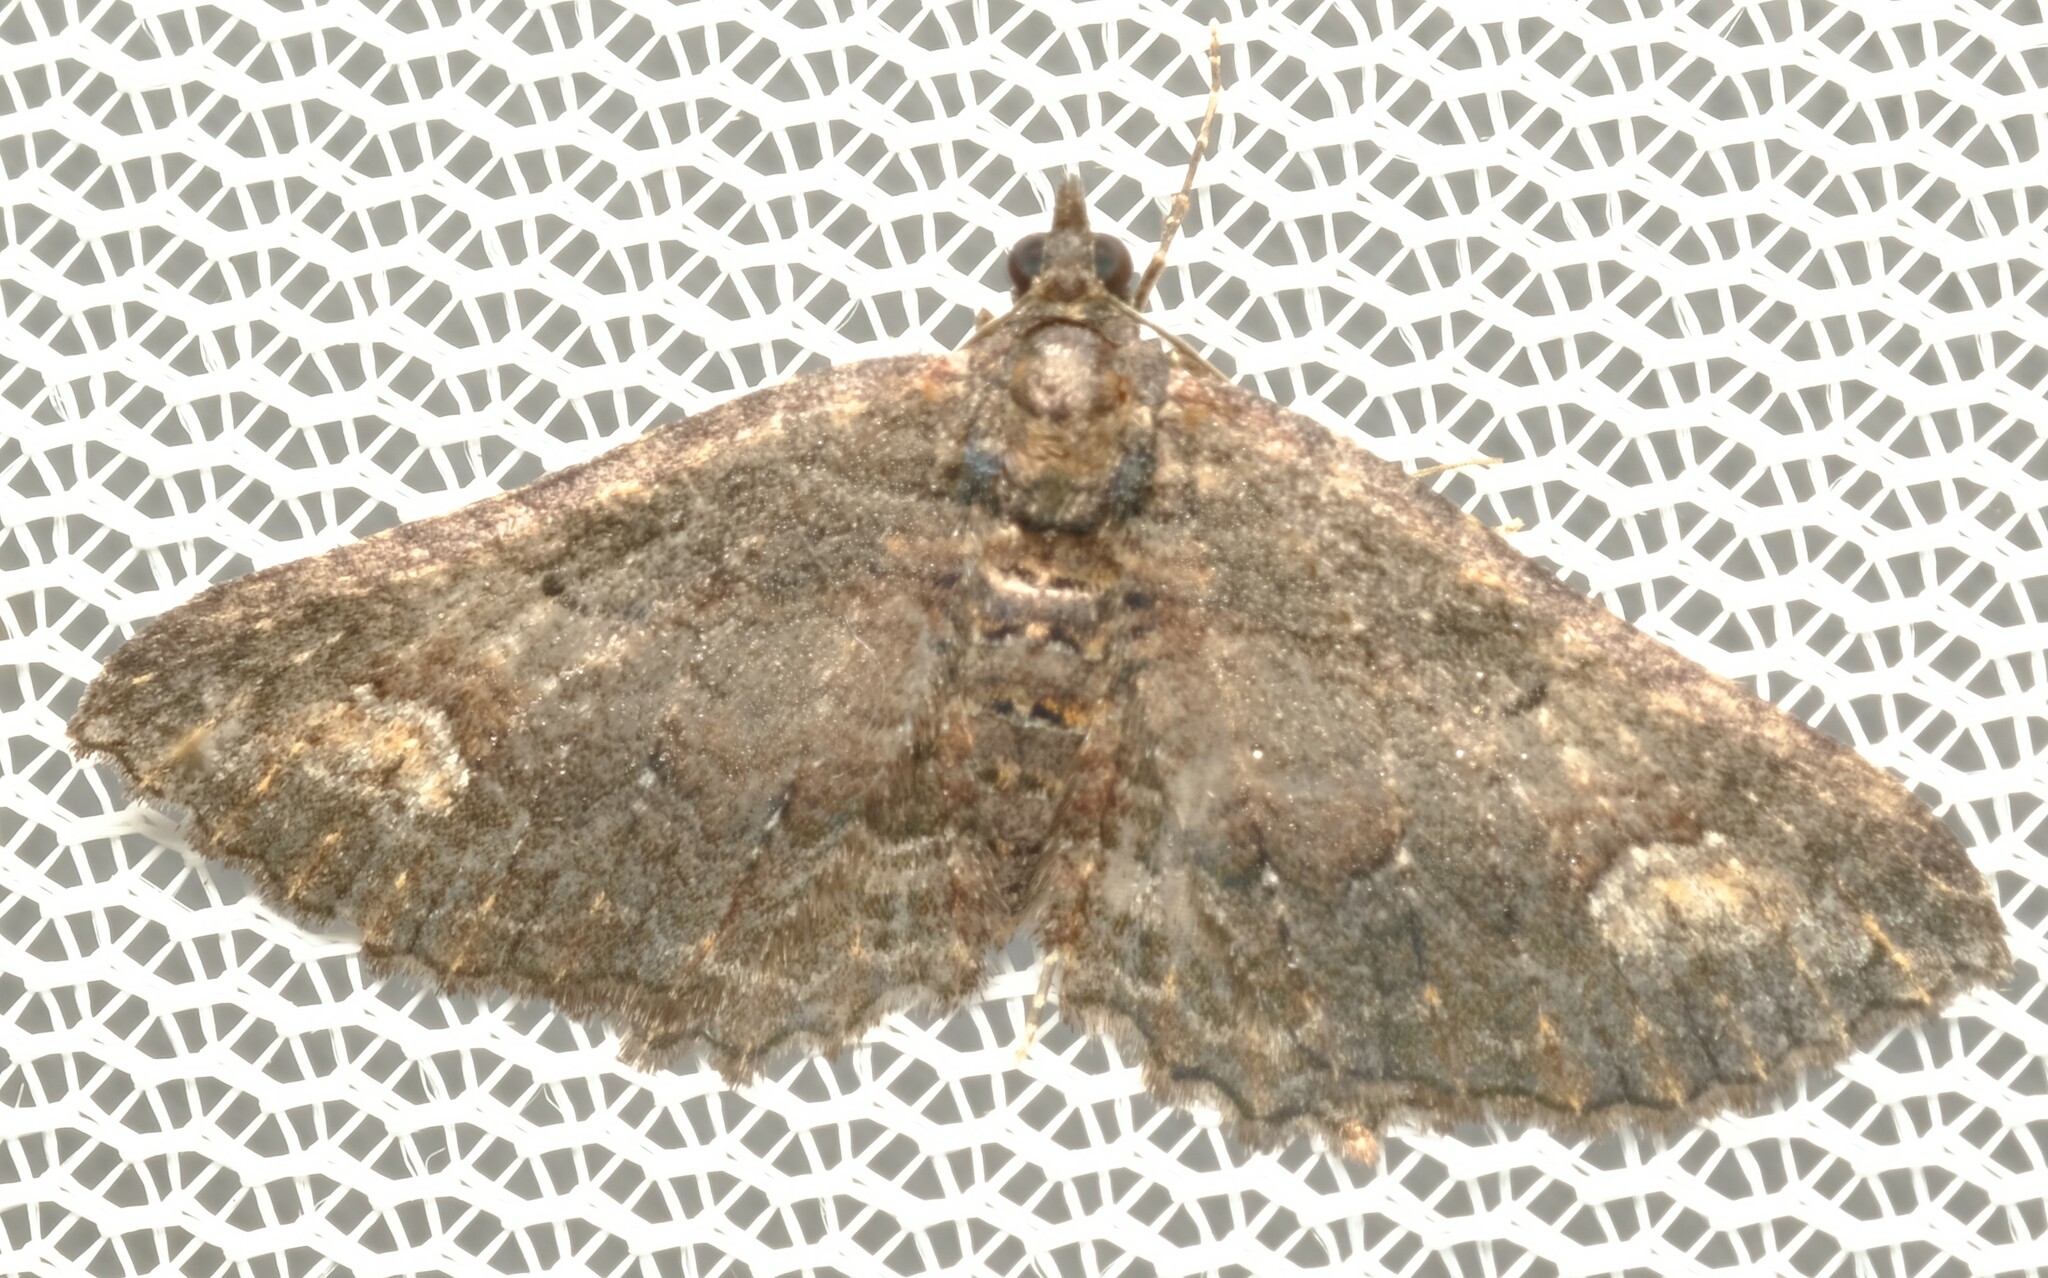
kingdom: Animalia
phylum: Arthropoda
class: Insecta
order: Lepidoptera
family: Geometridae
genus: Eupithecia
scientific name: Eupithecia Eucymatoge scotodes
